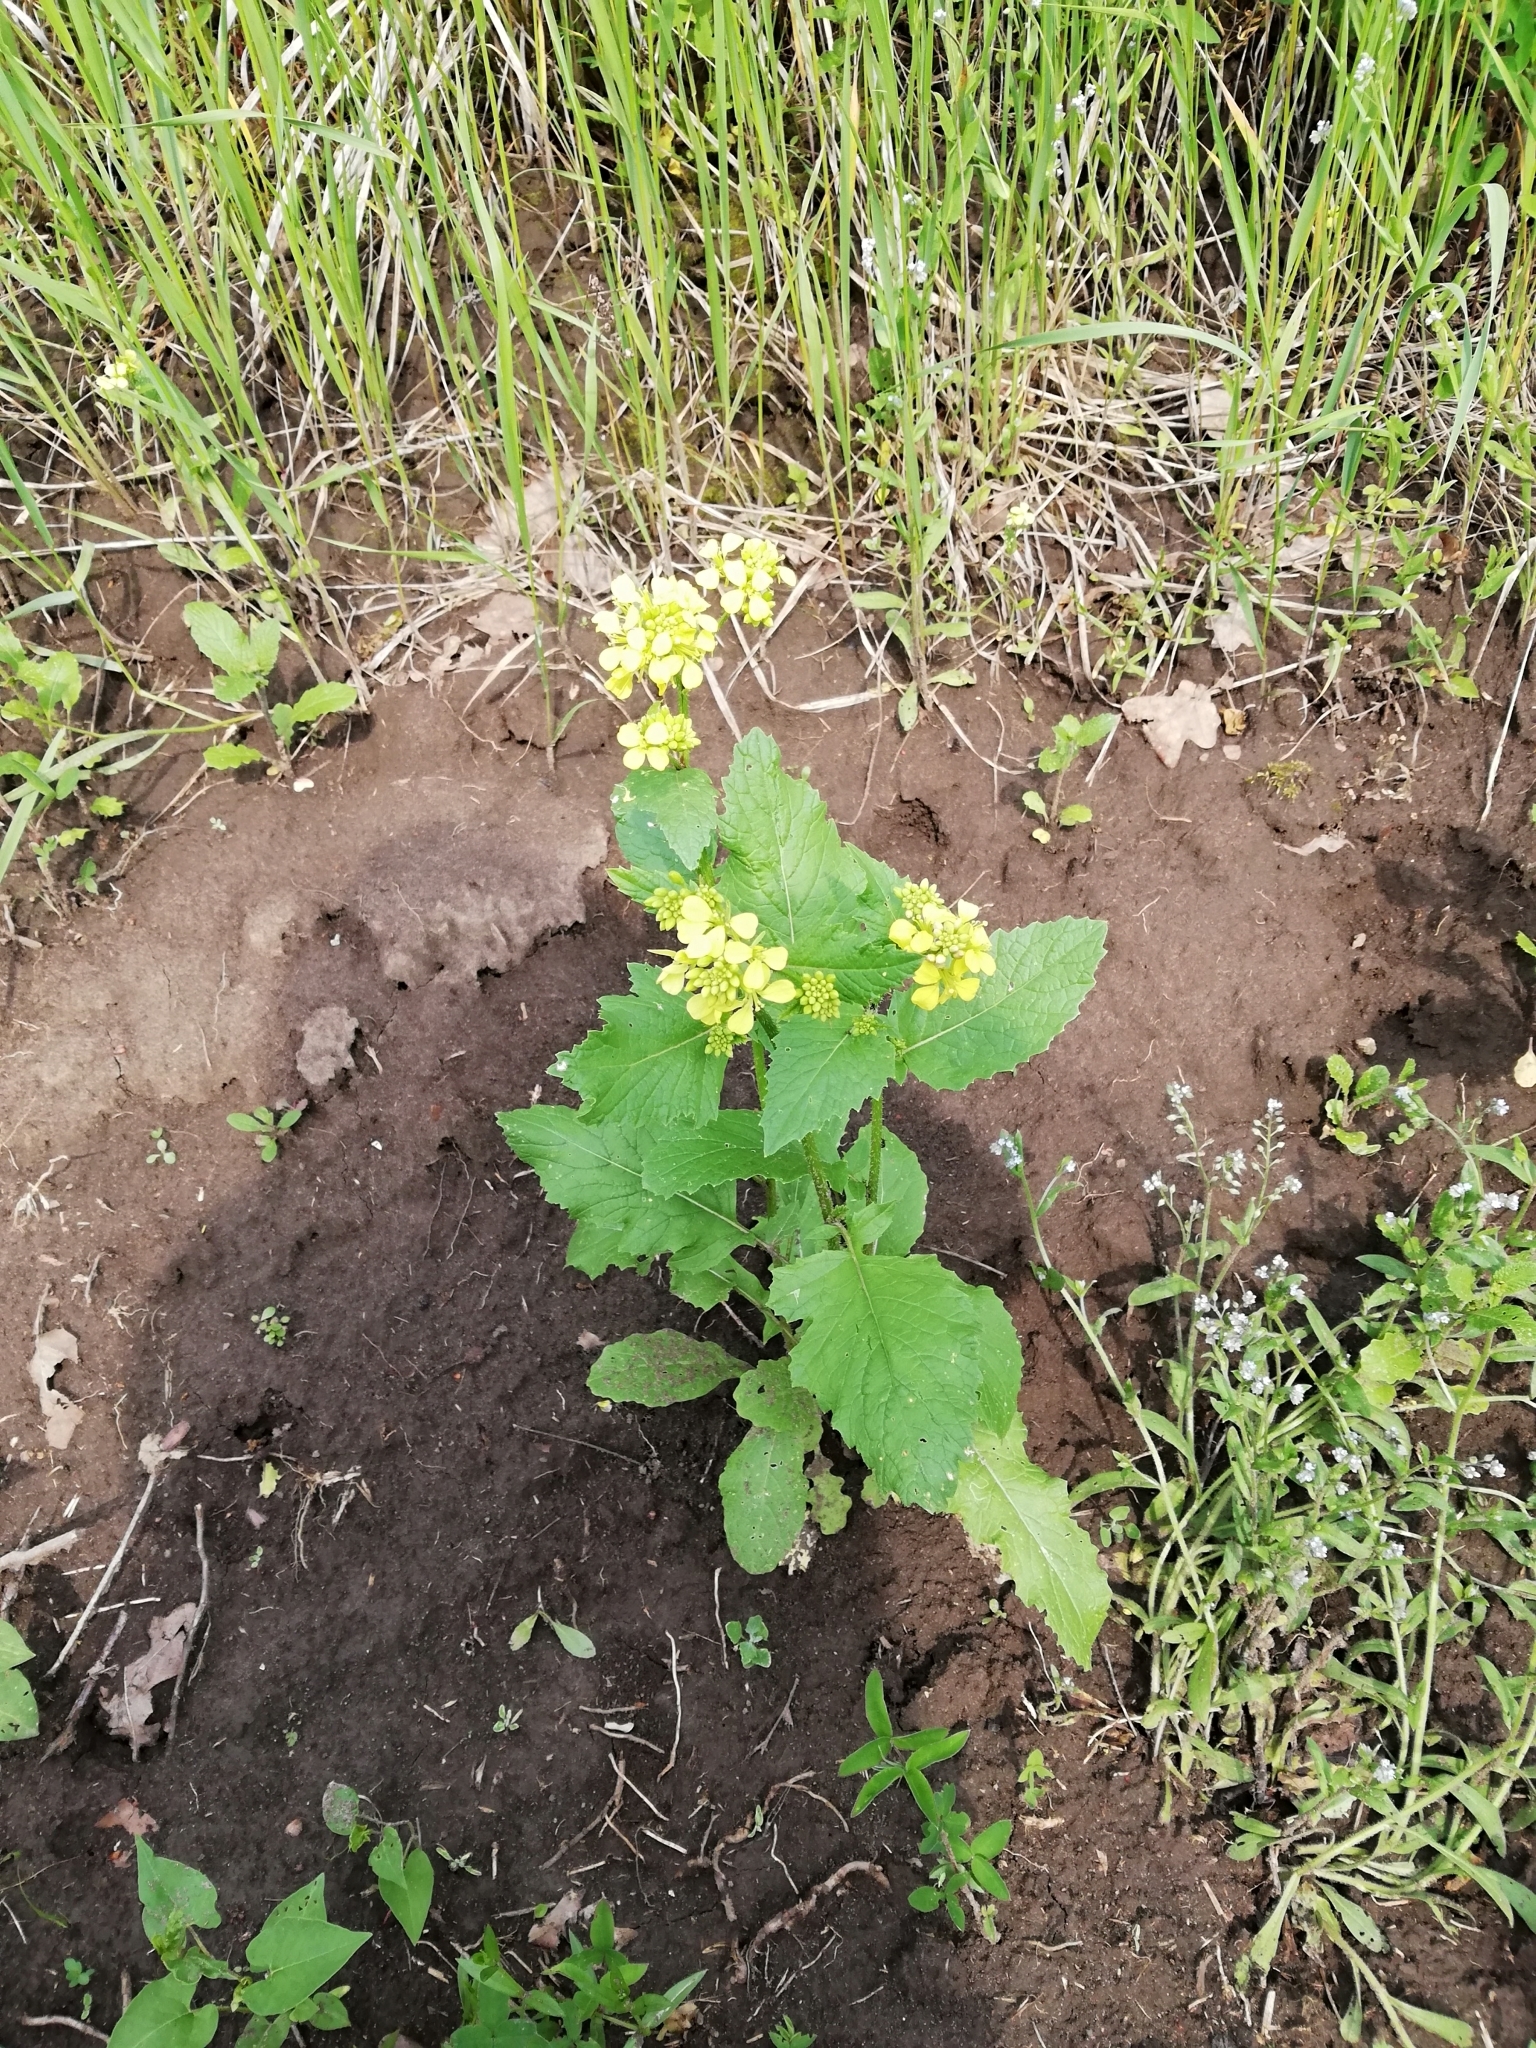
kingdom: Plantae
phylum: Tracheophyta
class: Magnoliopsida
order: Brassicales
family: Brassicaceae
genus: Sinapis
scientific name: Sinapis arvensis
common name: Charlock
